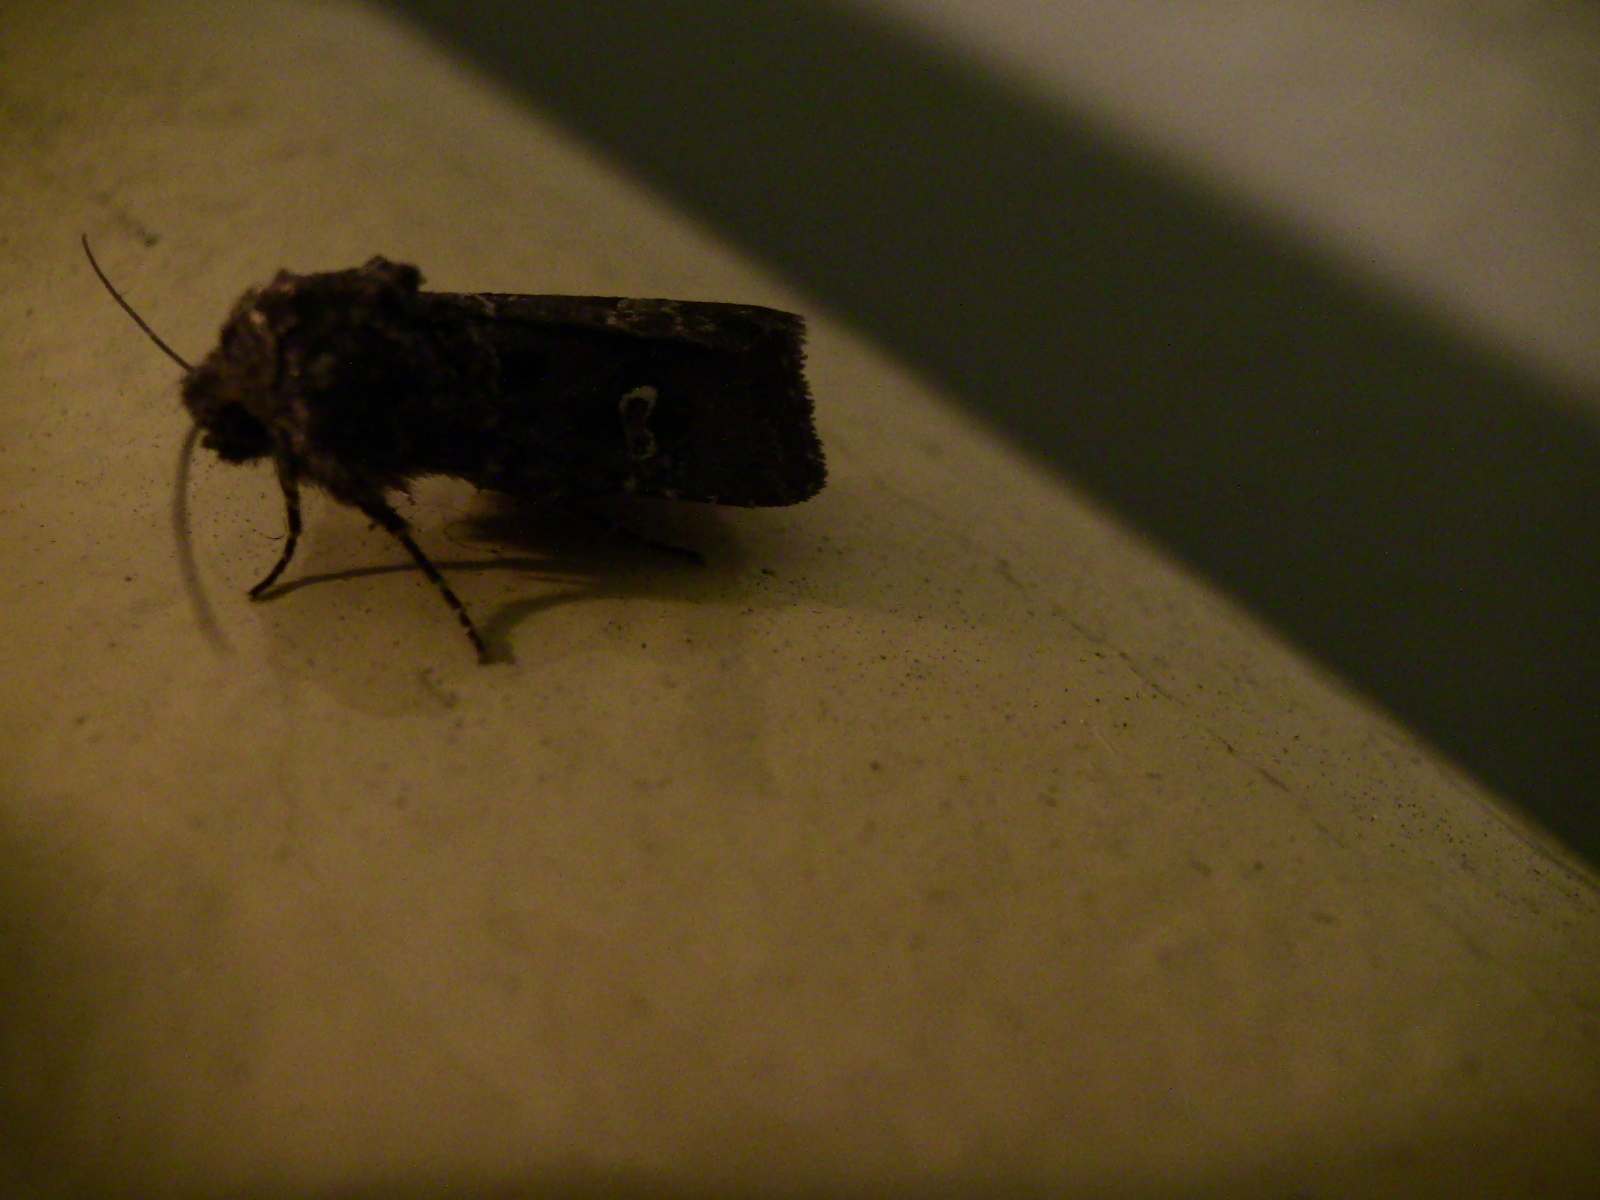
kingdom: Animalia
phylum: Arthropoda
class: Insecta
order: Lepidoptera
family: Noctuidae
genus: Lacinipolia
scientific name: Lacinipolia renigera
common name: Kidney-spotted minor
